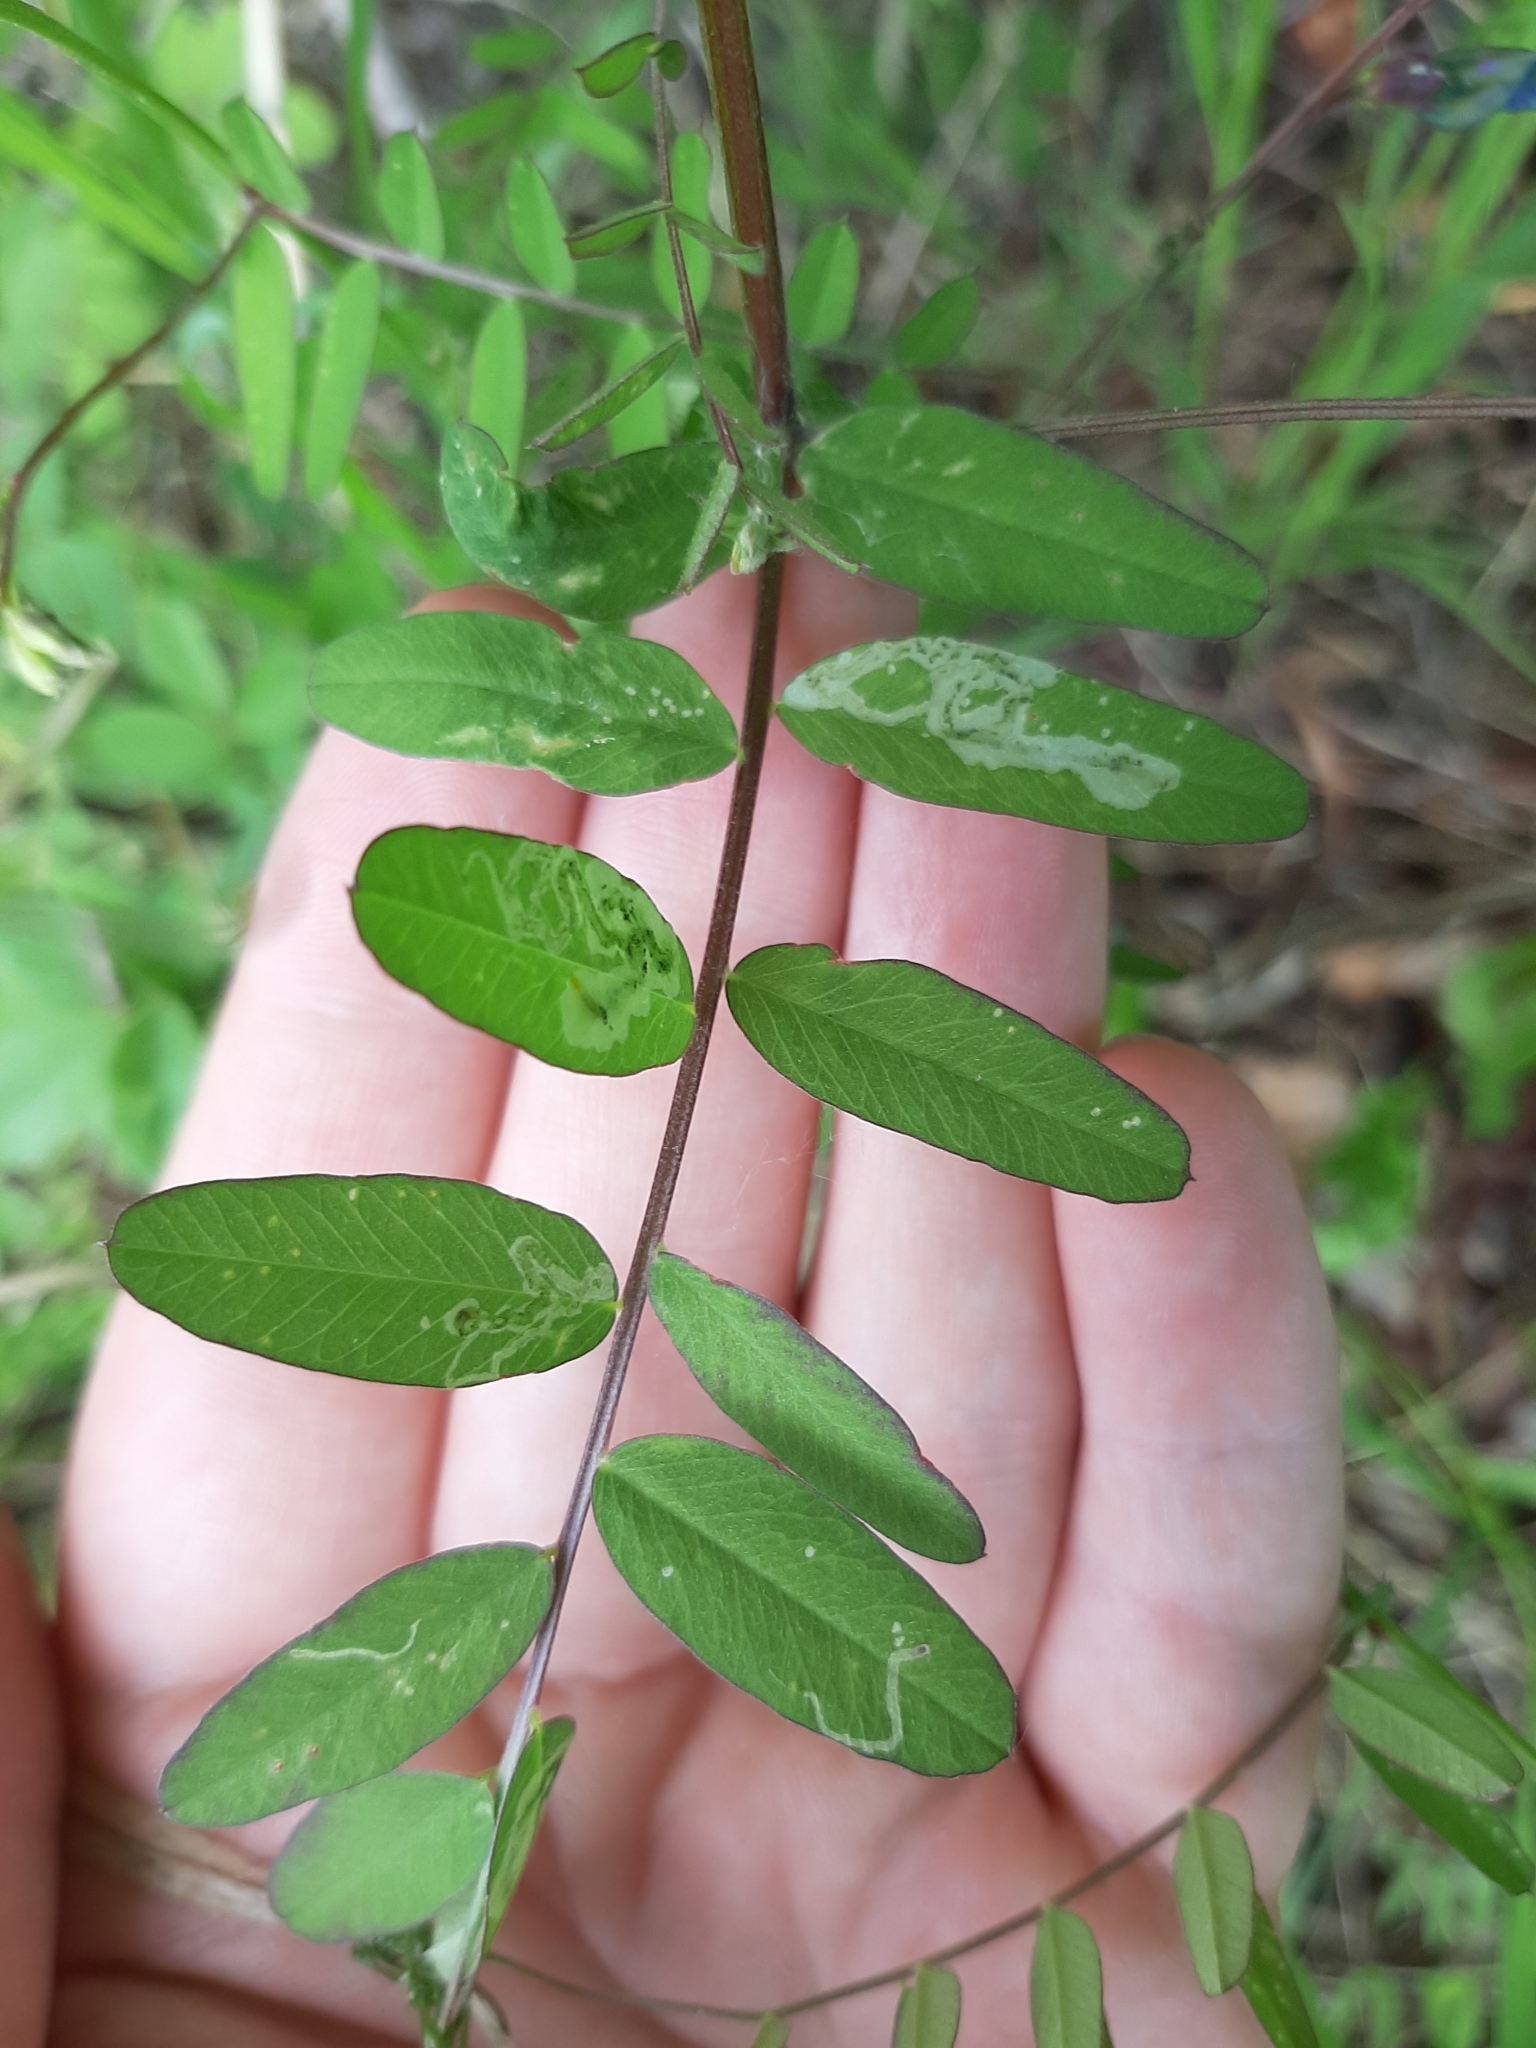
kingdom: Plantae
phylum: Tracheophyta
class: Magnoliopsida
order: Fabales
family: Fabaceae
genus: Vicia
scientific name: Vicia americana
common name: American vetch
